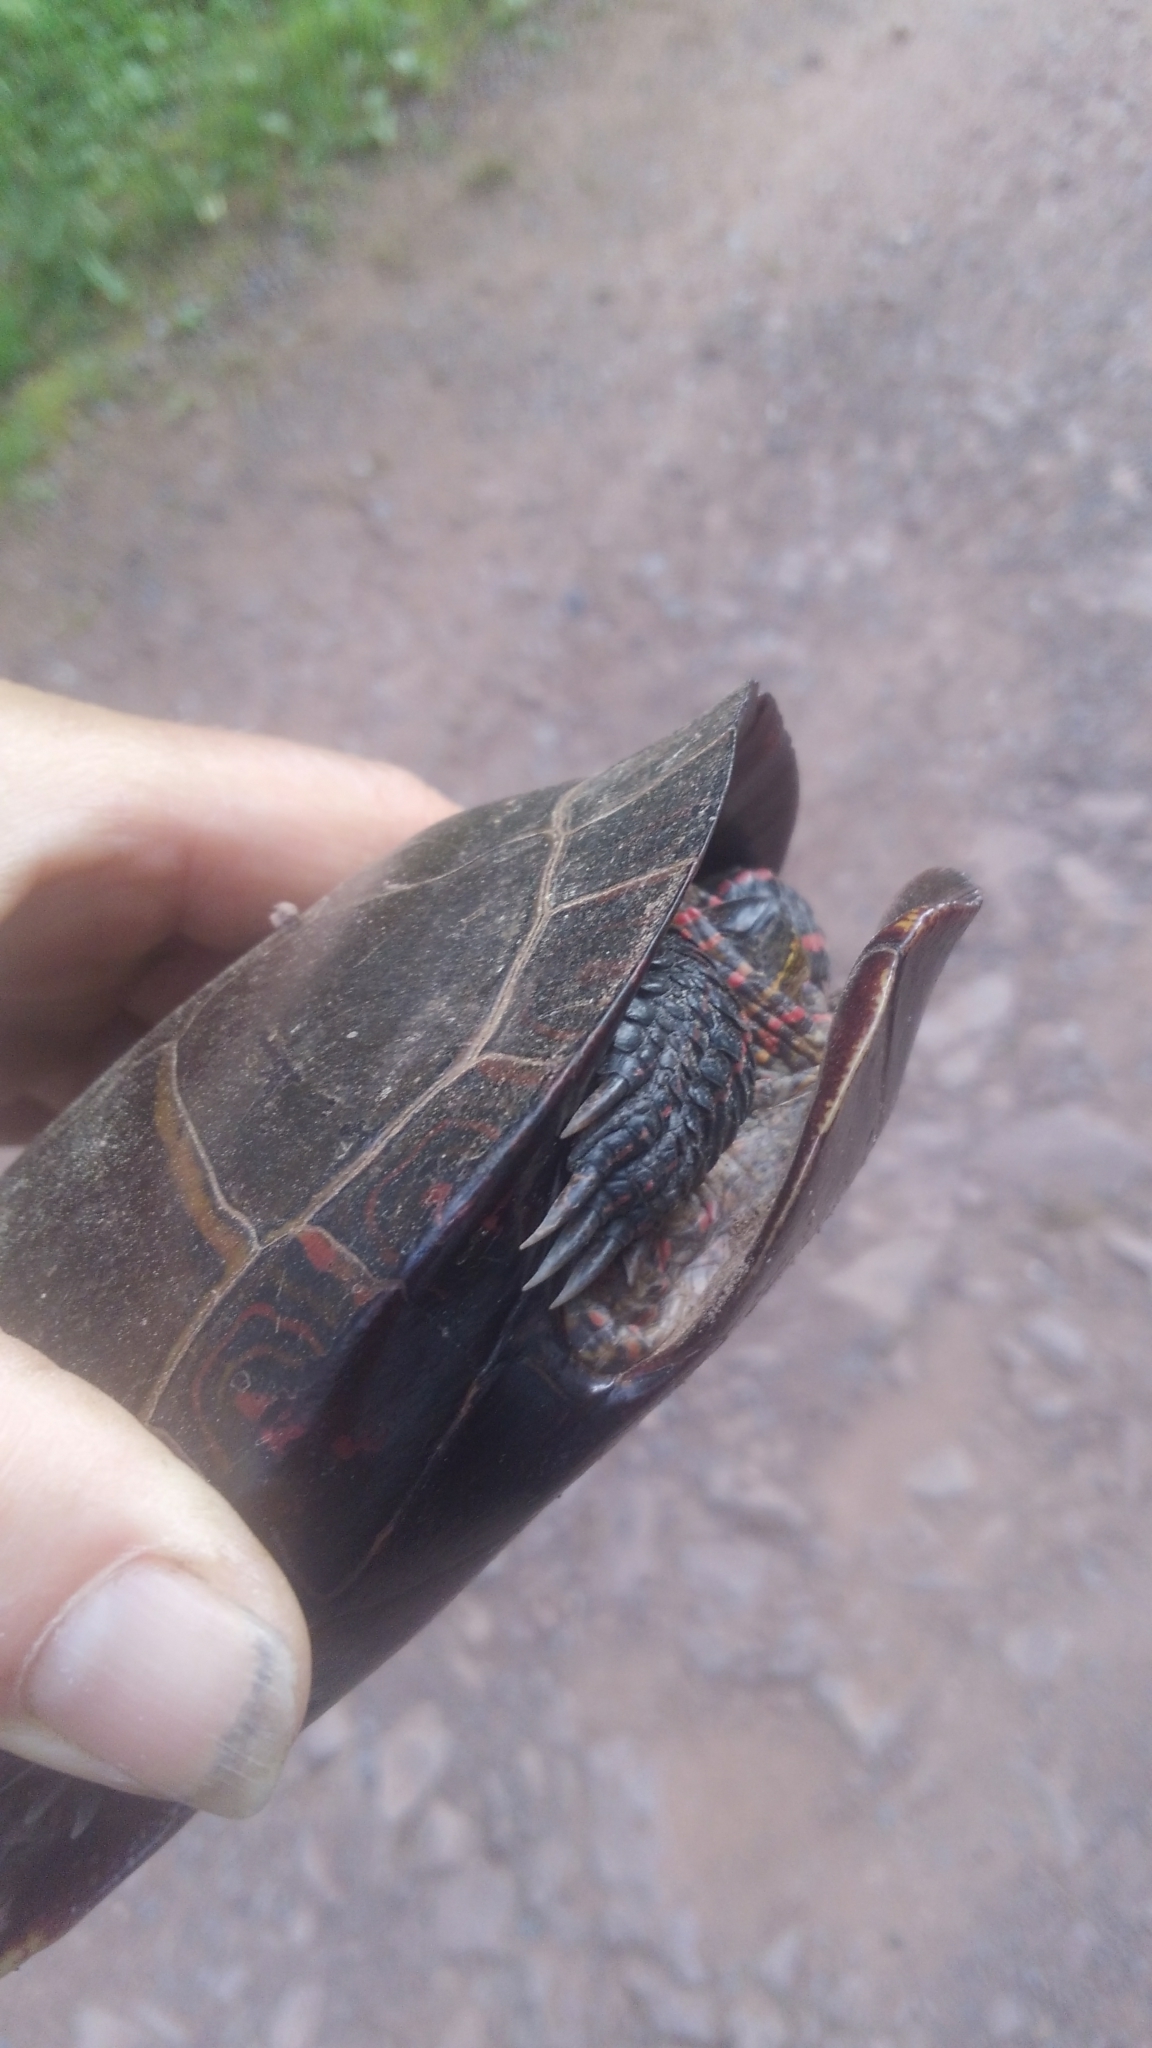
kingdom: Animalia
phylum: Chordata
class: Testudines
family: Emydidae
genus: Chrysemys
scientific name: Chrysemys picta
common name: Painted turtle
